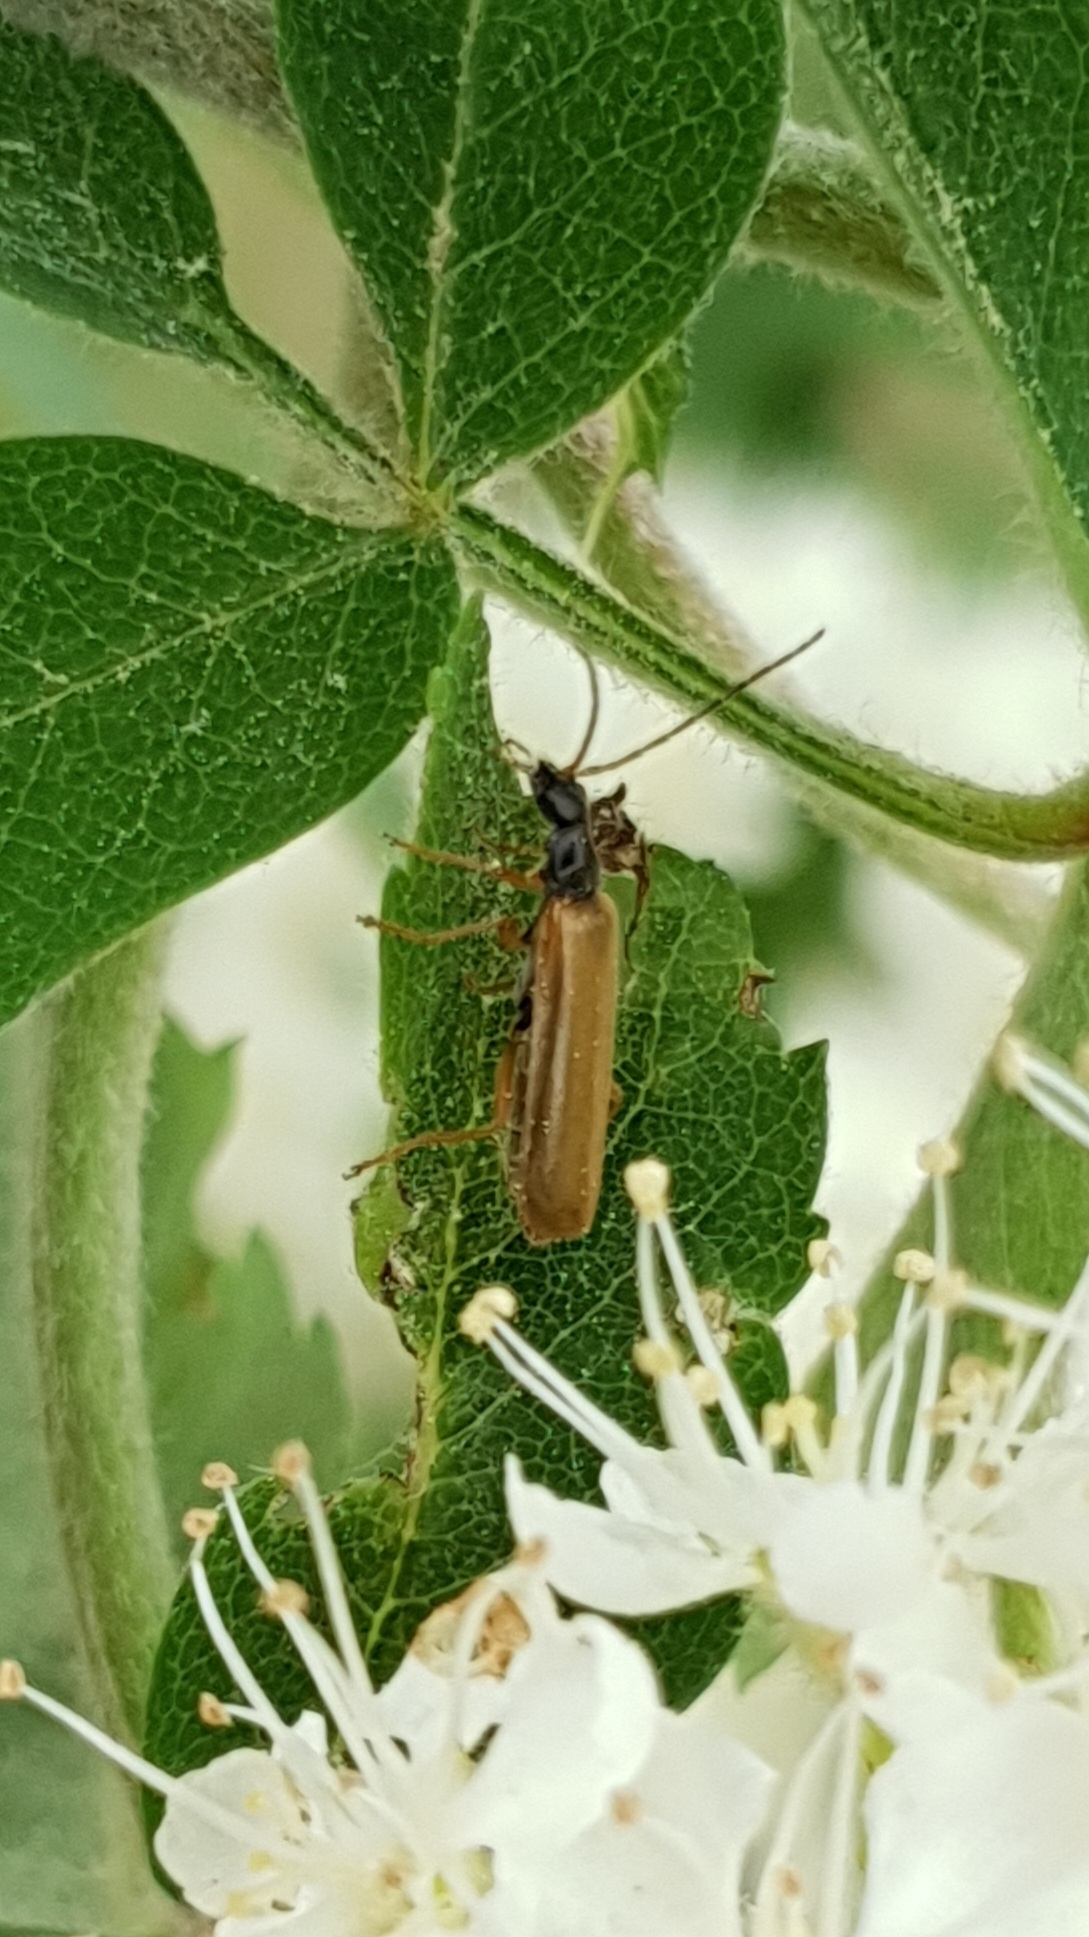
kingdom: Animalia
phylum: Arthropoda
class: Insecta
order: Coleoptera
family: Cantharidae
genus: Rhagonycha
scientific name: Rhagonycha lignosa
